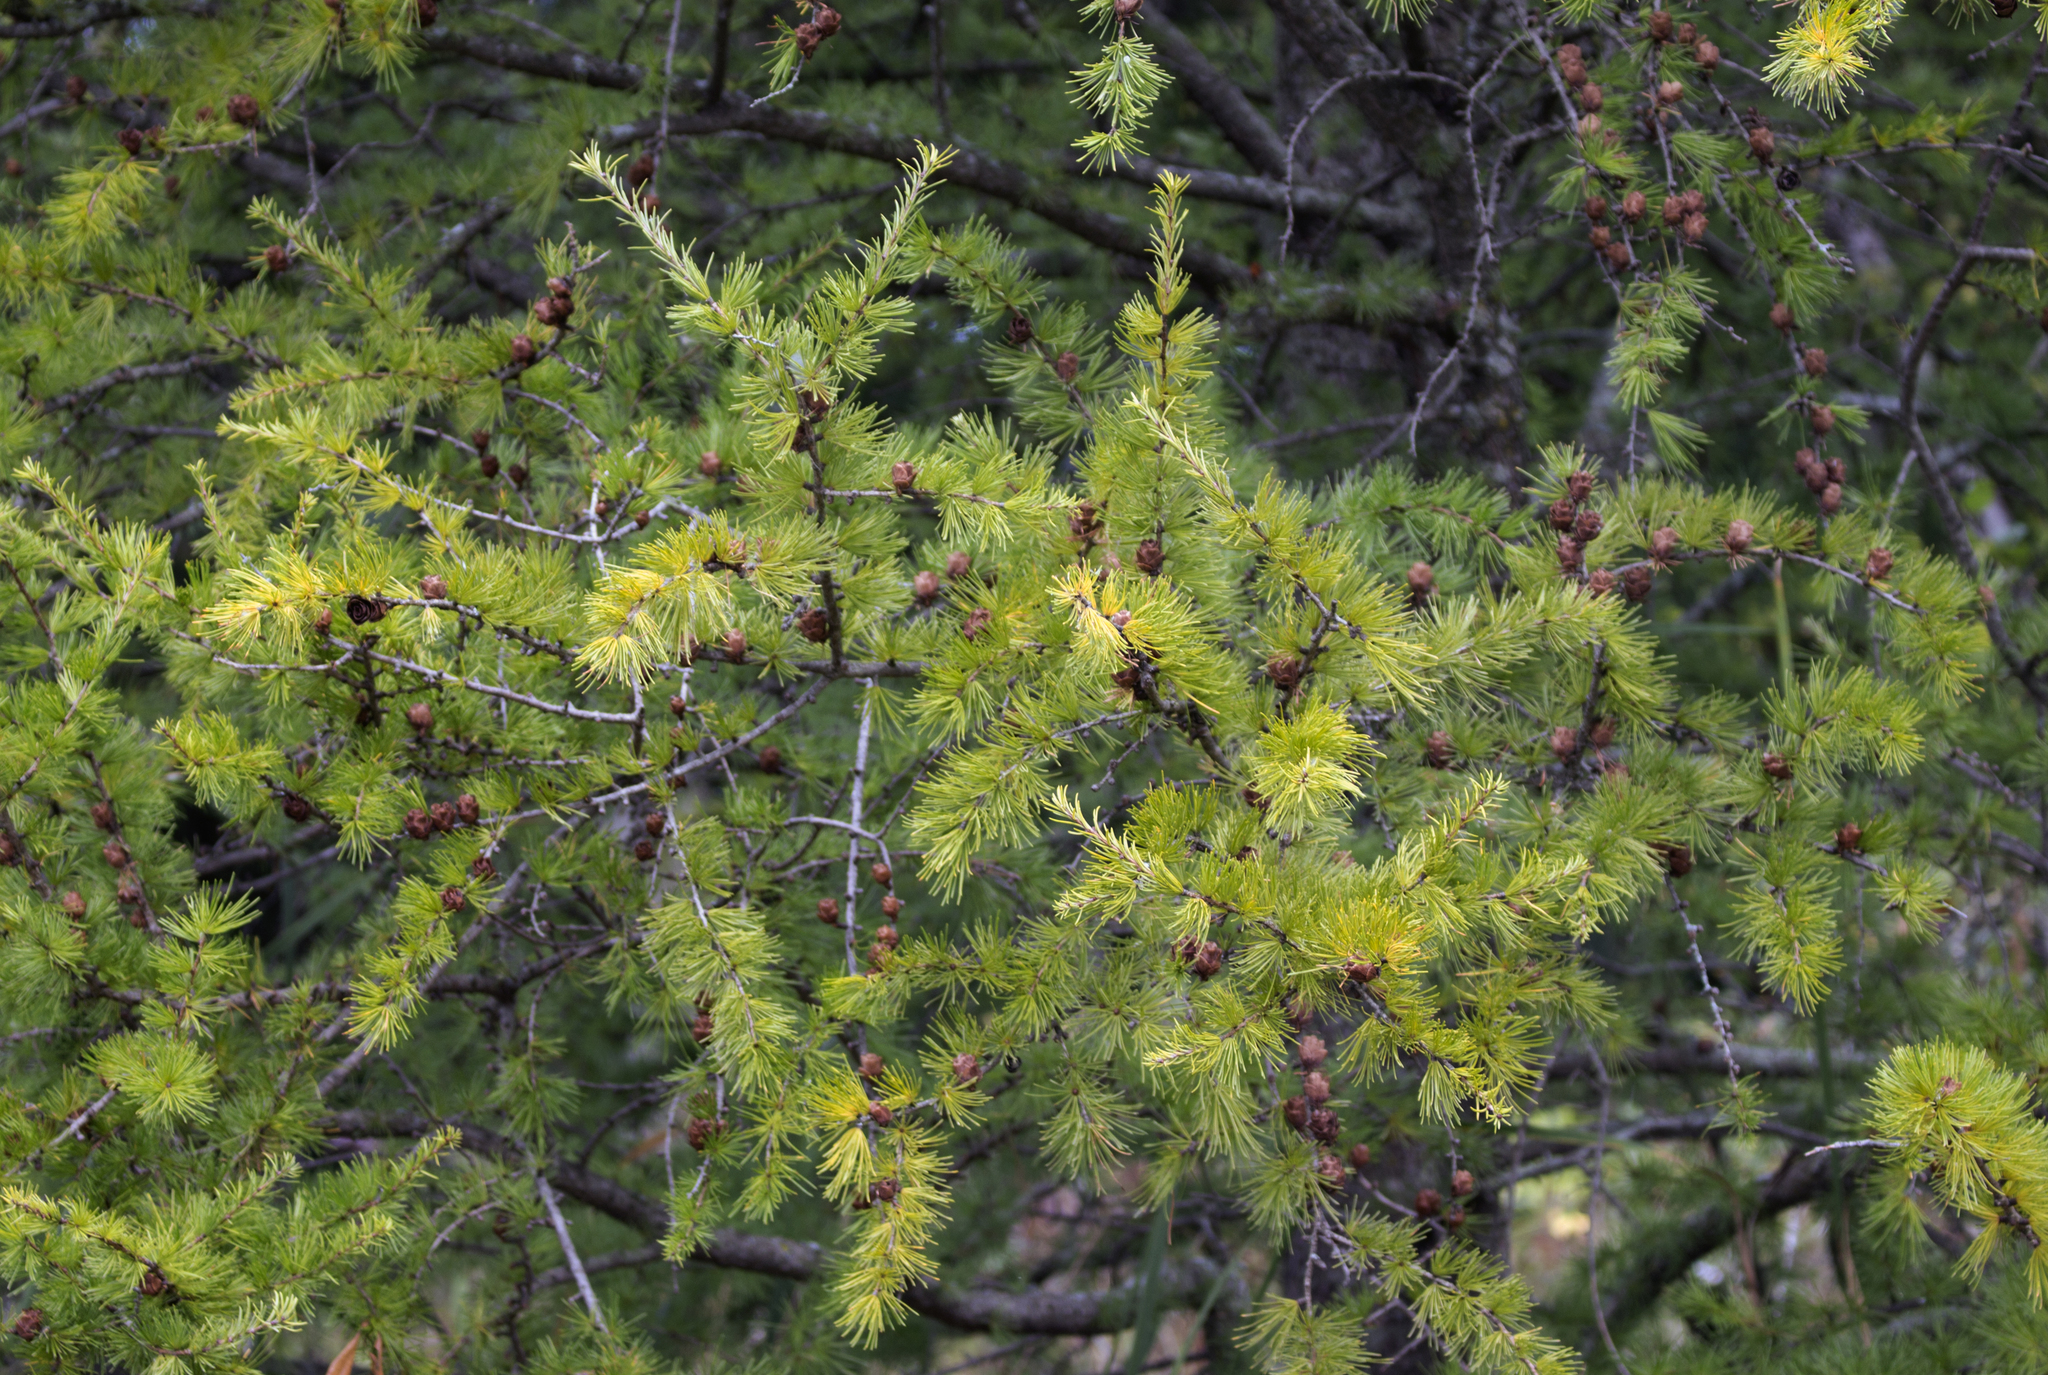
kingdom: Plantae
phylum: Tracheophyta
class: Pinopsida
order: Pinales
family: Pinaceae
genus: Larix
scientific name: Larix laricina
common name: American larch
